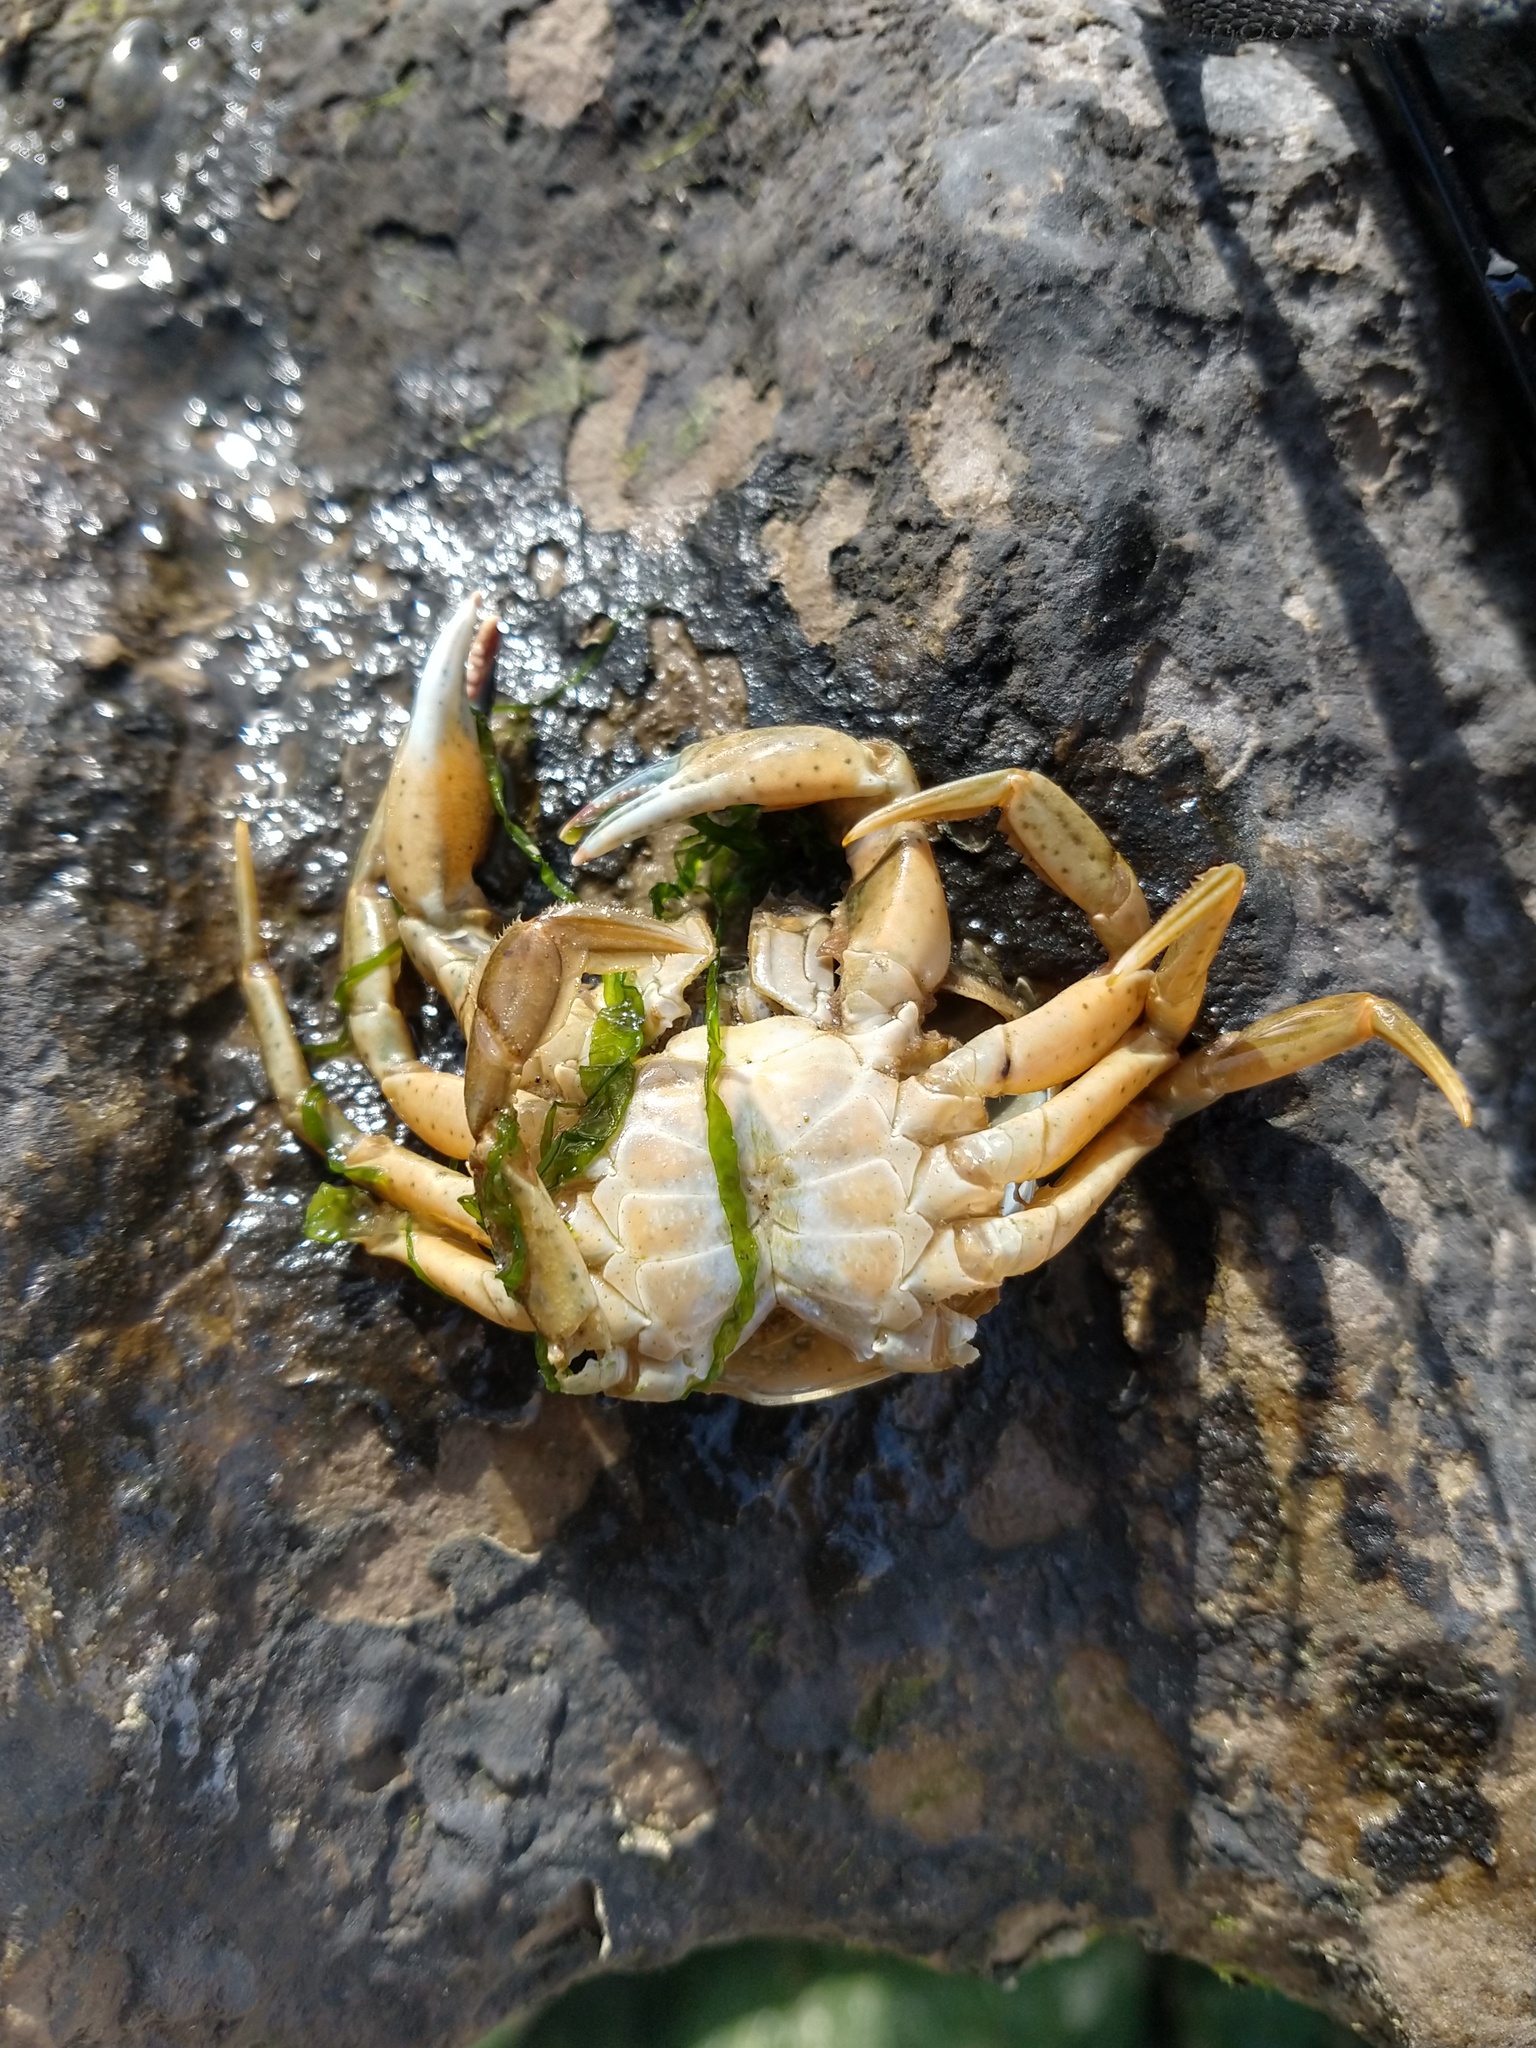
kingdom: Animalia
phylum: Arthropoda
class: Malacostraca
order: Decapoda
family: Carcinidae
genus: Carcinus
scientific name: Carcinus maenas
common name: European green crab
